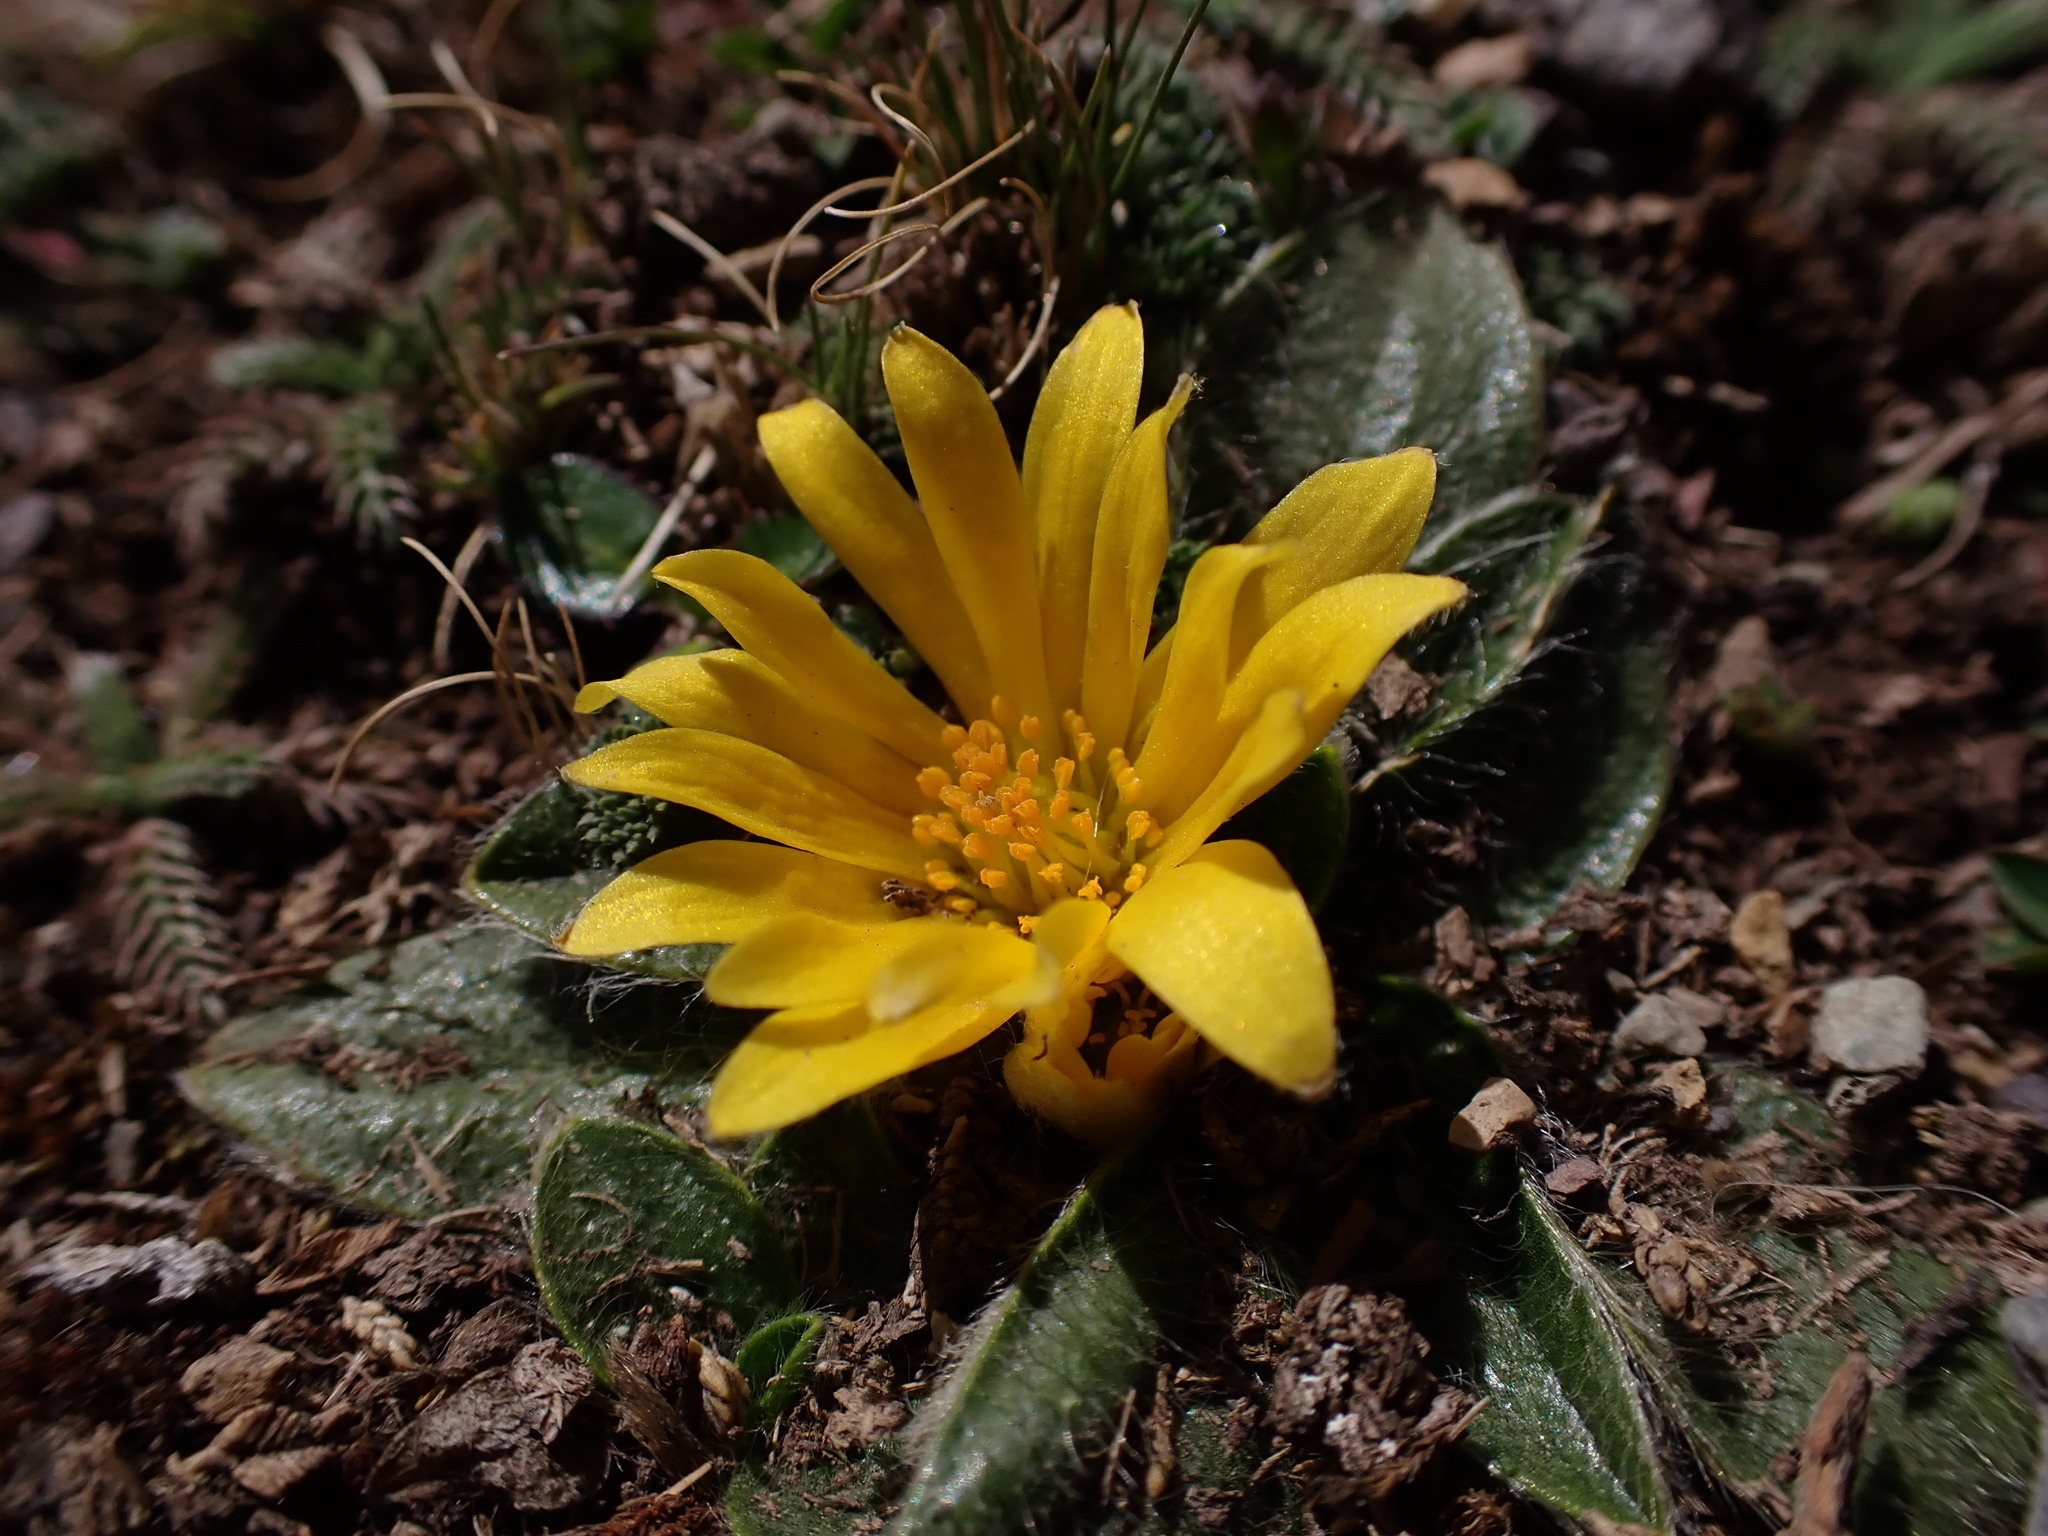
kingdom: Plantae
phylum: Tracheophyta
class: Magnoliopsida
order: Ranunculales
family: Ranunculaceae
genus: Knowltonia
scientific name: Knowltonia integrifolia
